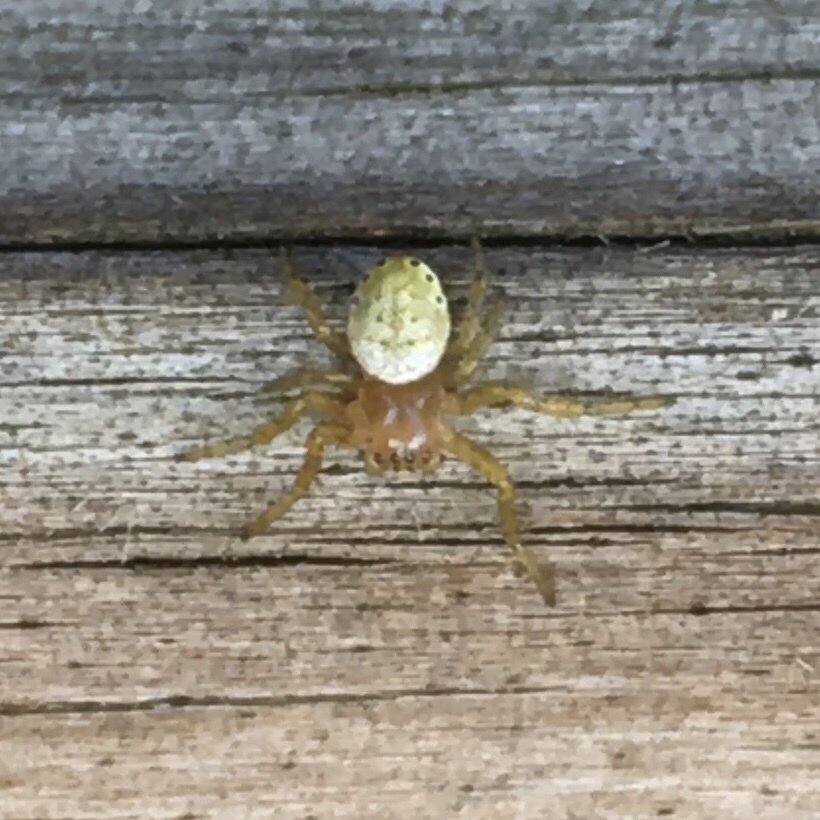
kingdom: Animalia
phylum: Arthropoda
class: Arachnida
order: Araneae
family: Araneidae
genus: Araniella
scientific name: Araniella displicata
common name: Sixspotted orb weaver
